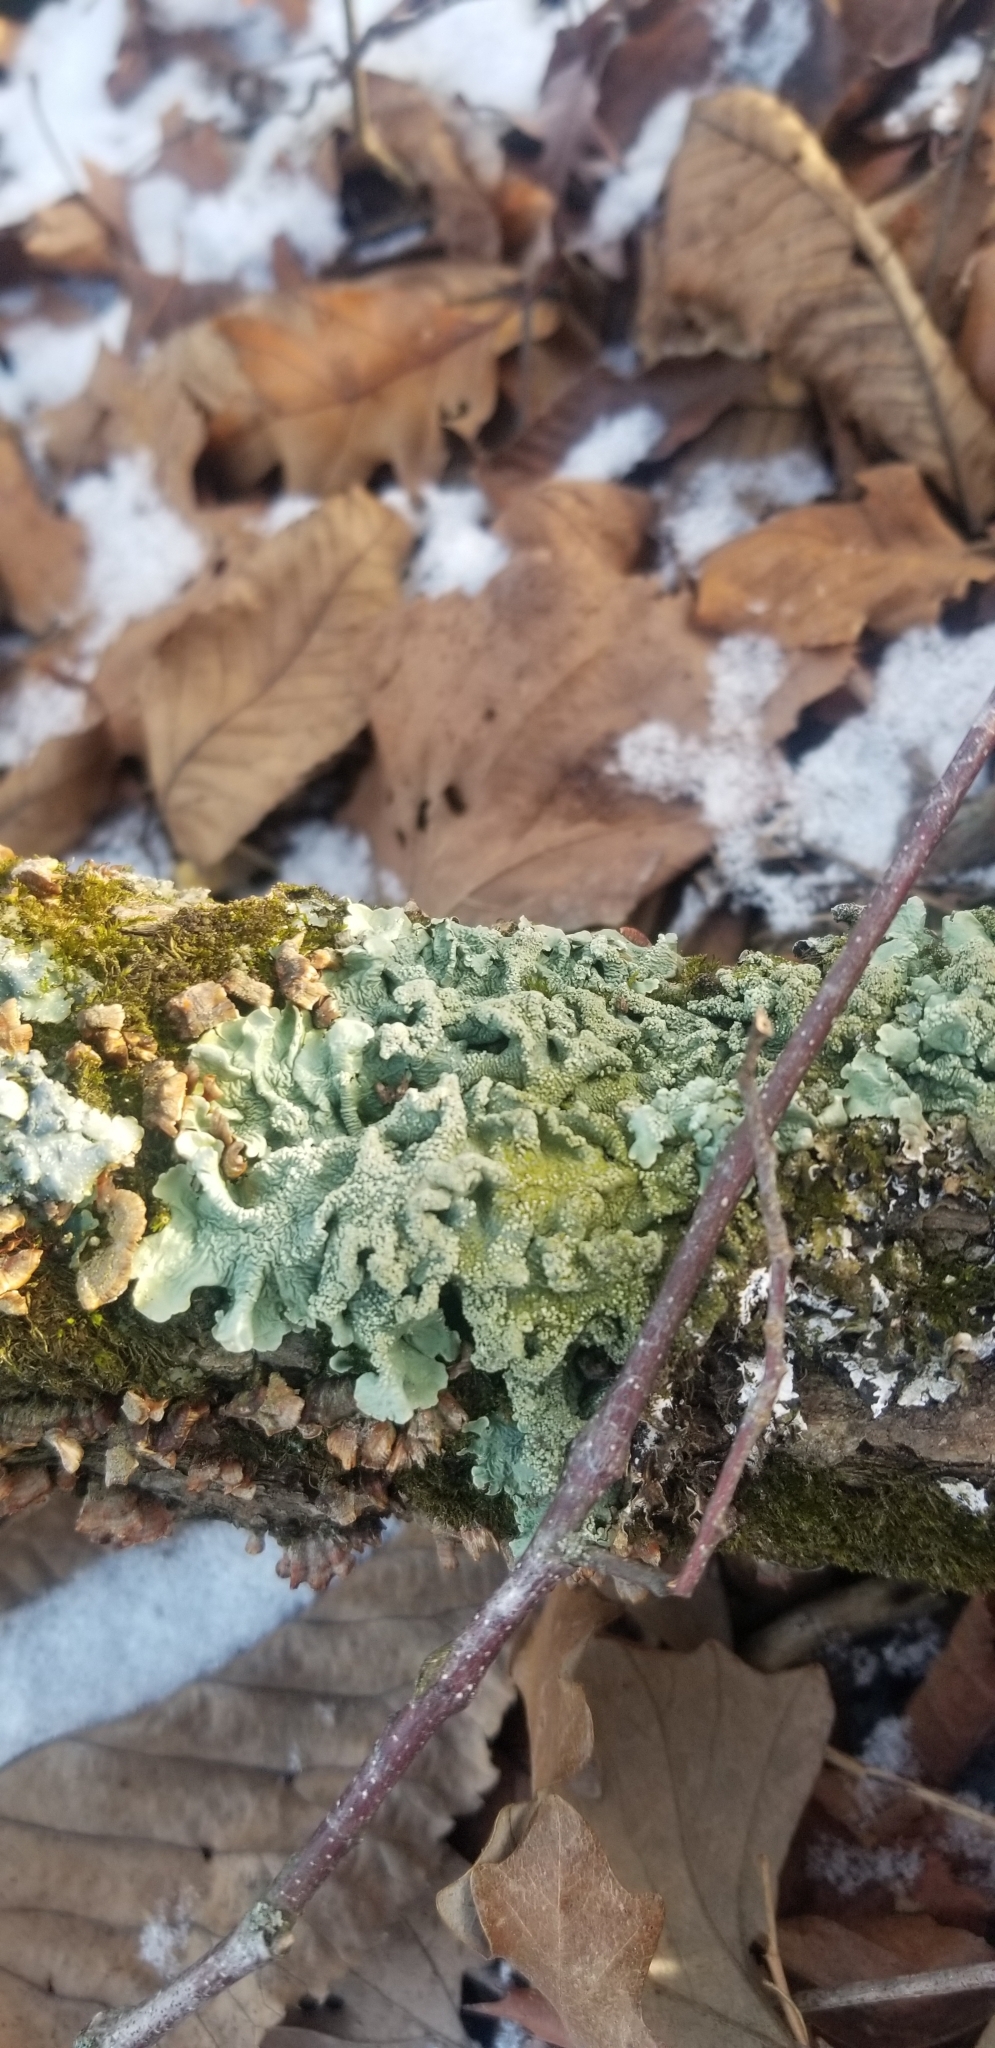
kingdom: Fungi
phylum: Ascomycota
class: Lecanoromycetes
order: Lecanorales
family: Parmeliaceae
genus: Flavoparmelia
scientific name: Flavoparmelia caperata
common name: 40-mile per hour lichen
